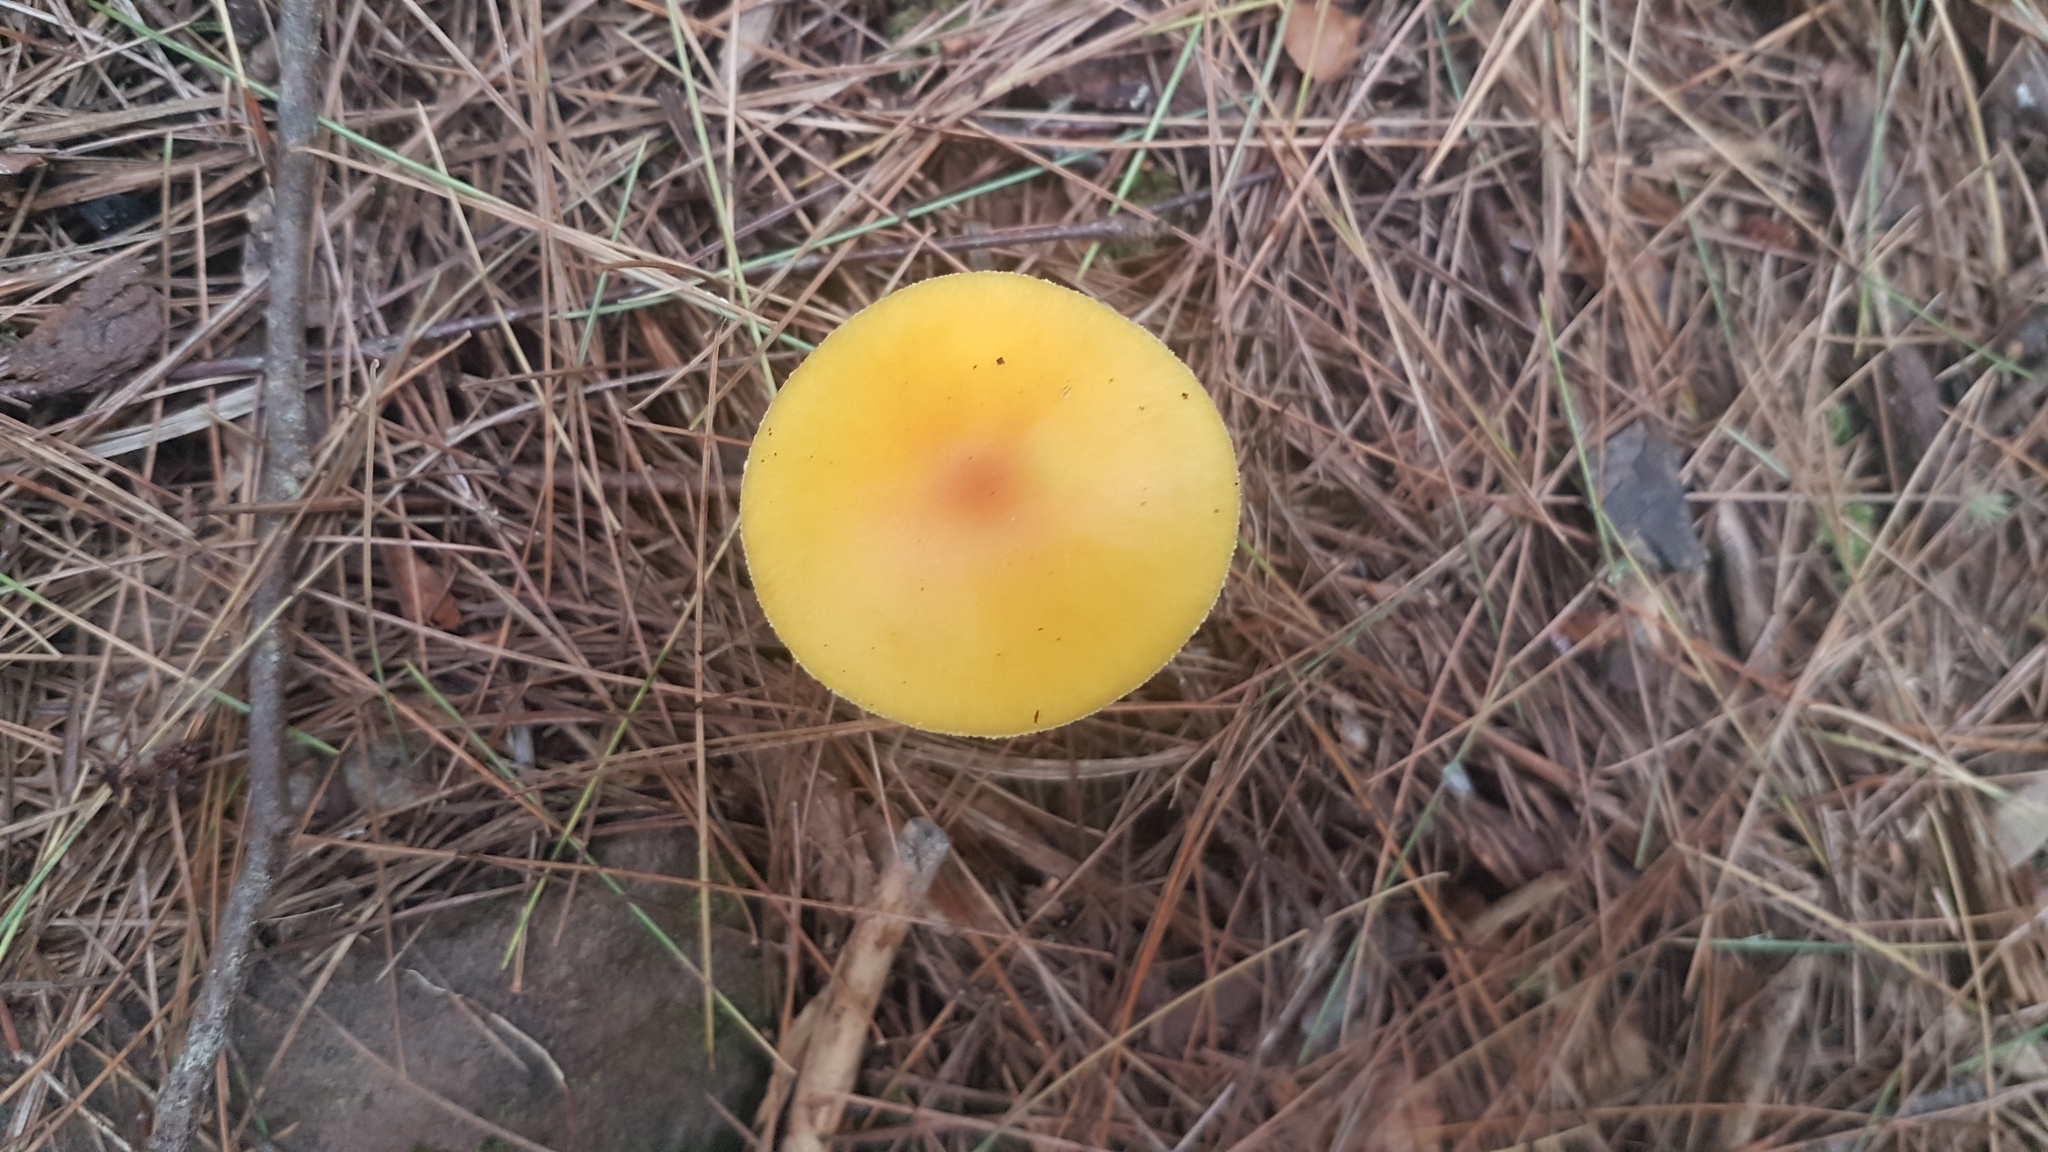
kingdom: Fungi
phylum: Basidiomycota
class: Agaricomycetes
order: Agaricales
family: Amanitaceae
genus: Amanita
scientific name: Amanita flavoconia
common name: Yellow patches
